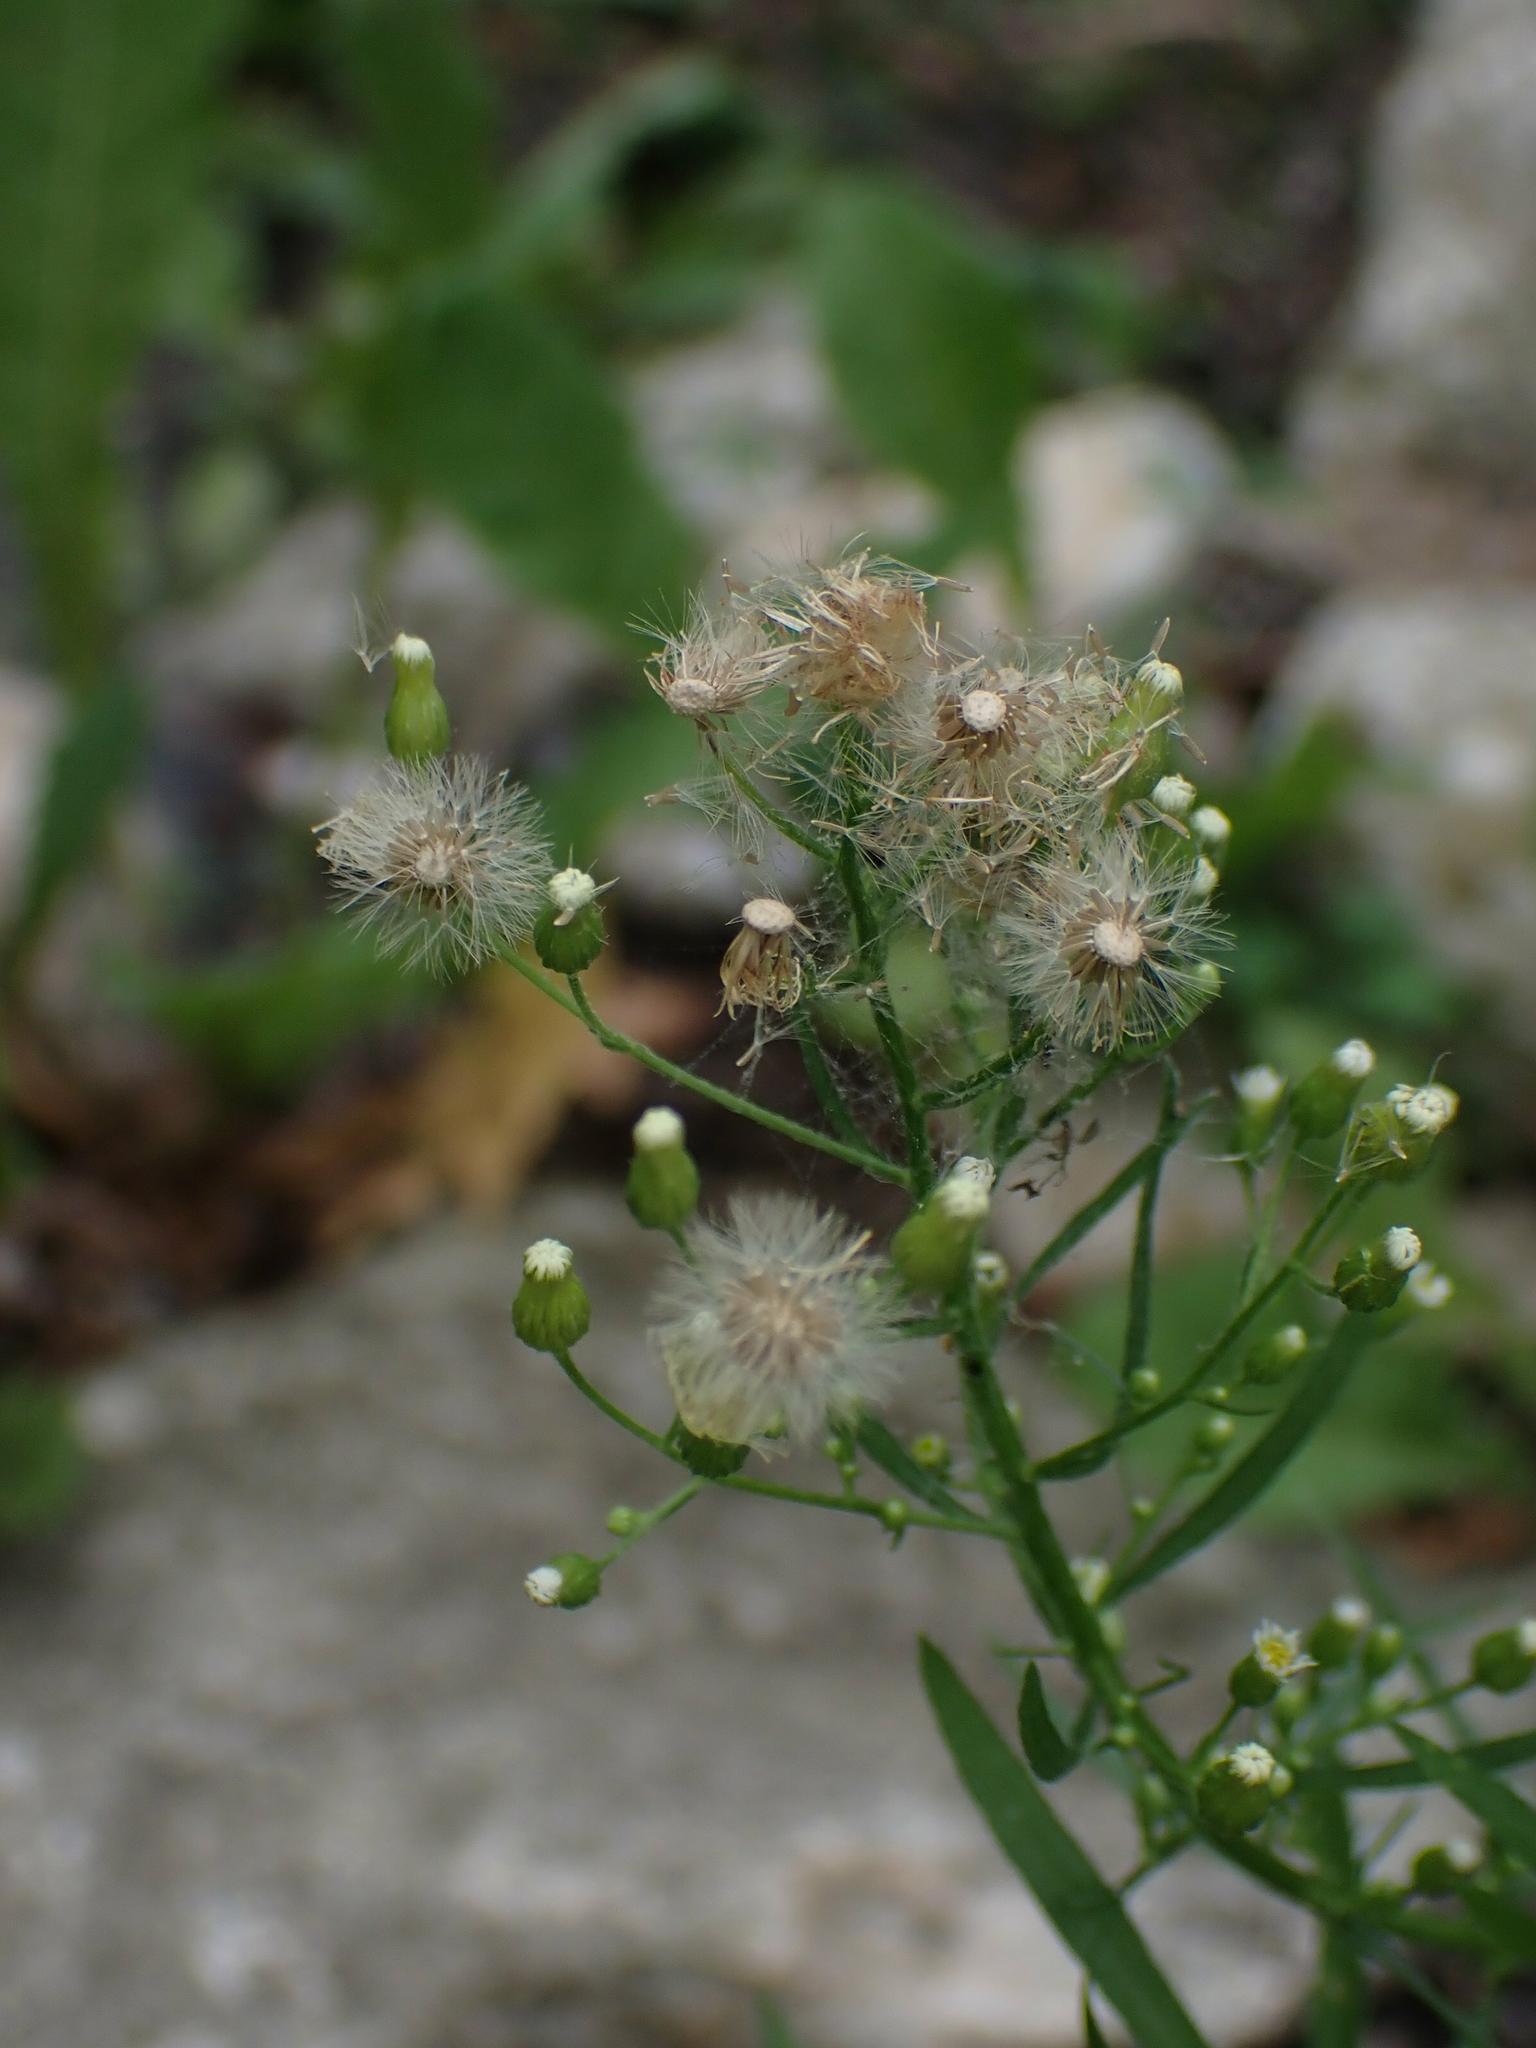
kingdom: Plantae
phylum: Tracheophyta
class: Magnoliopsida
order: Asterales
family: Asteraceae
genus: Erigeron
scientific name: Erigeron canadensis
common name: Canadian fleabane
